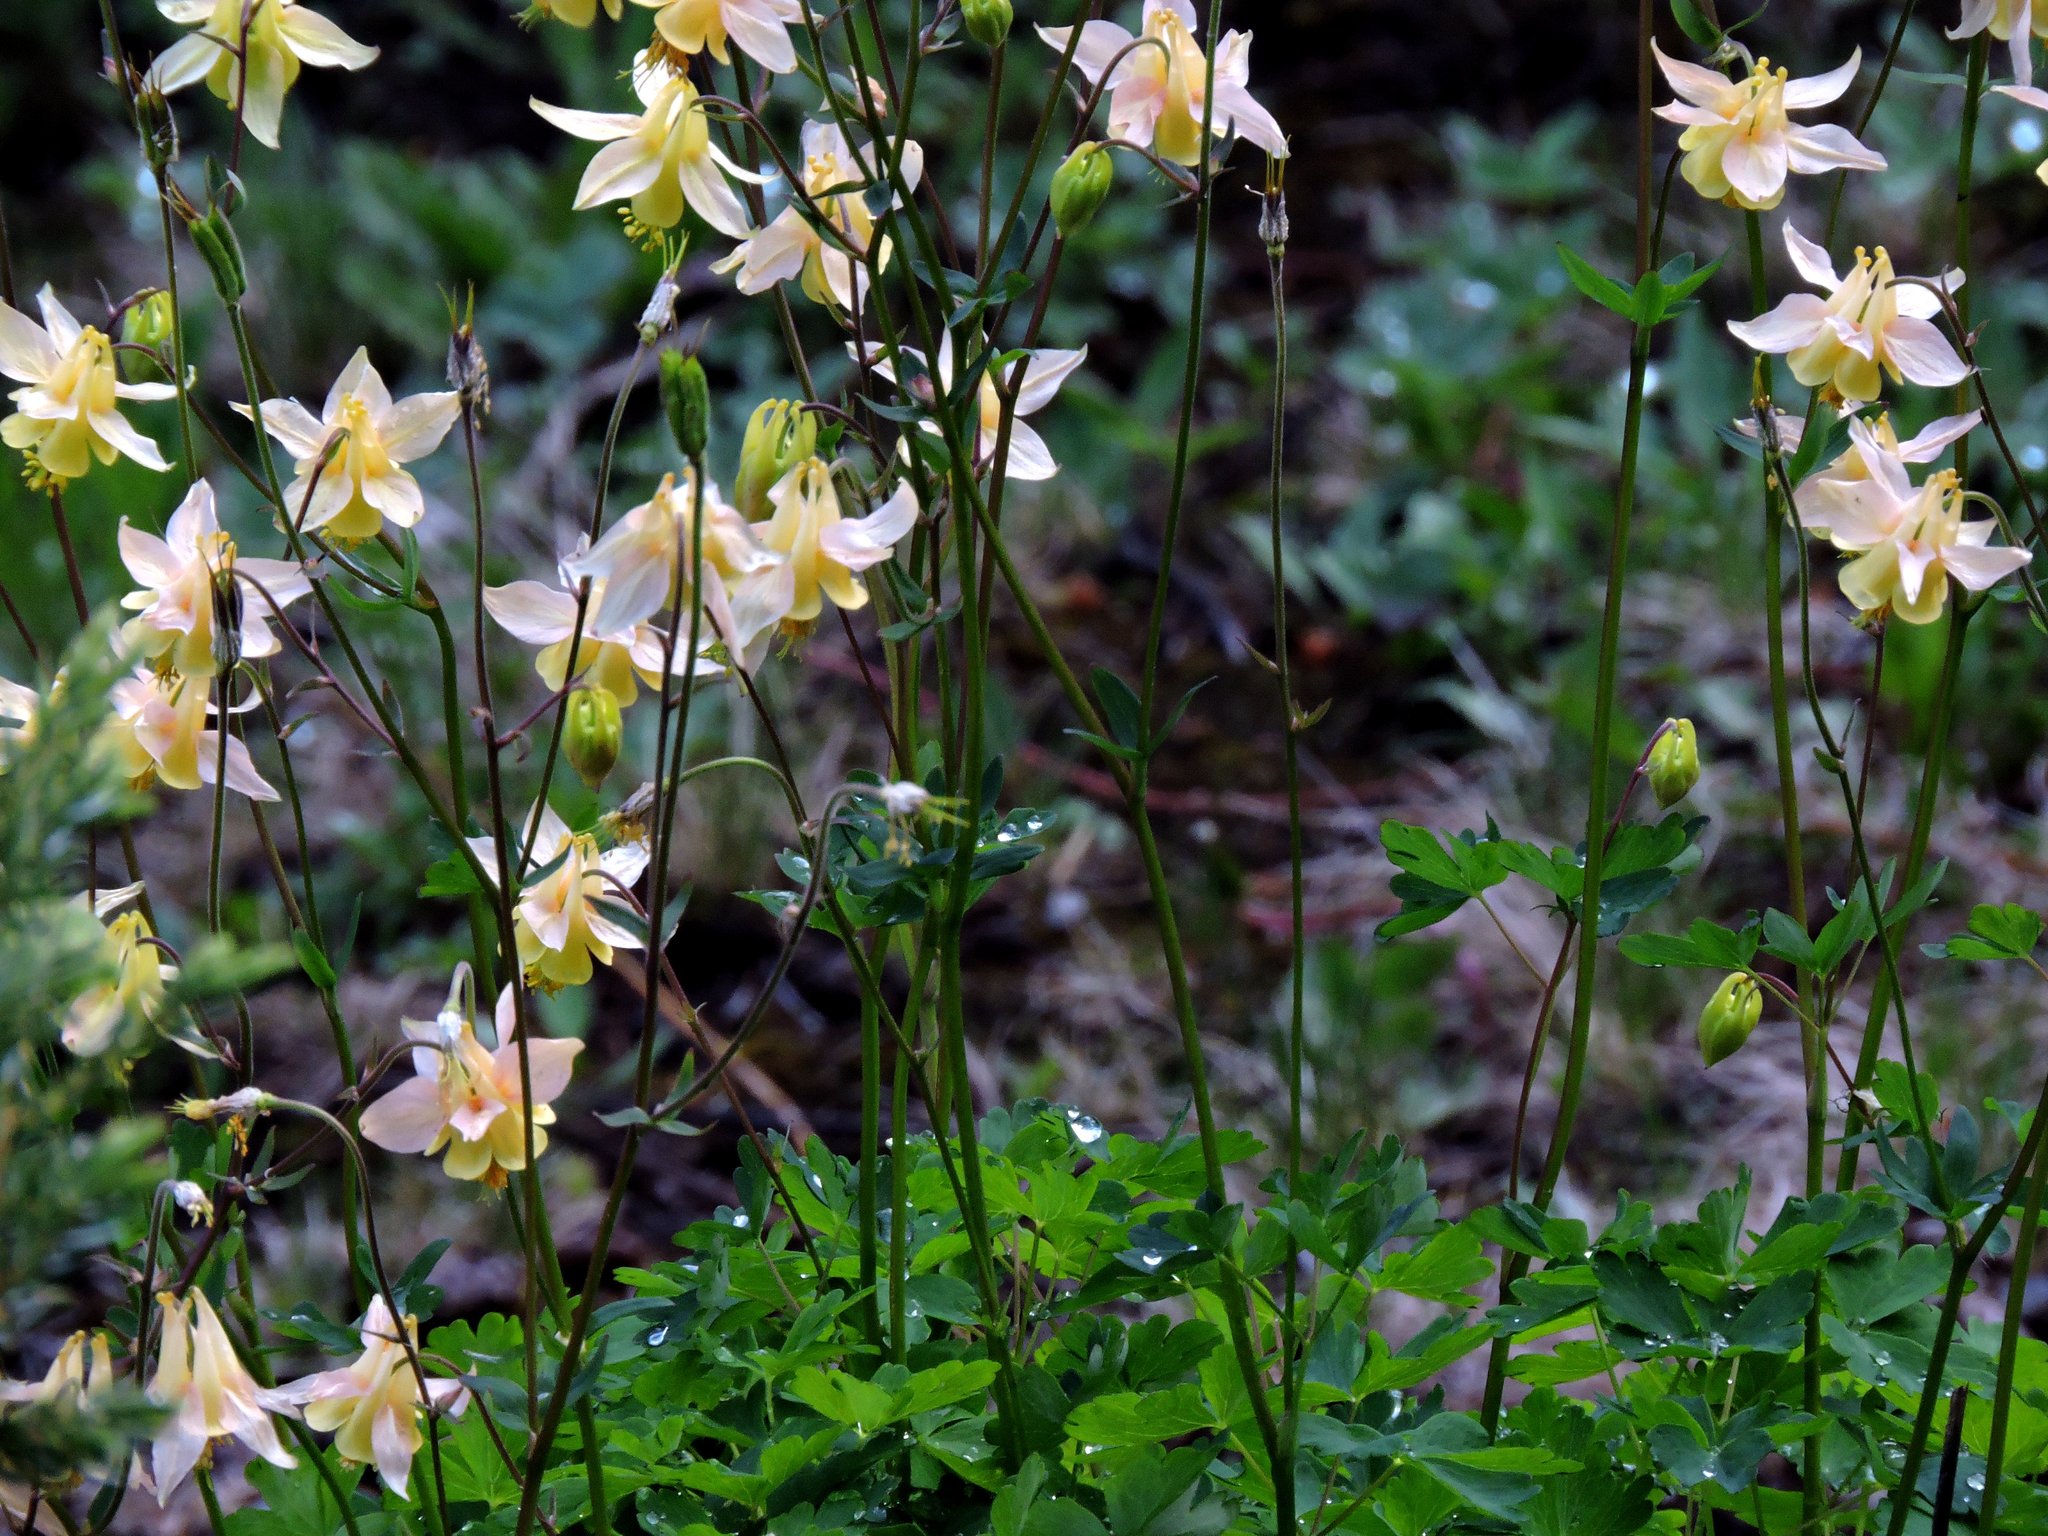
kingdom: Plantae
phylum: Tracheophyta
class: Magnoliopsida
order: Ranunculales
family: Ranunculaceae
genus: Aquilegia
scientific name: Aquilegia flavescens
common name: Yellow columbine
